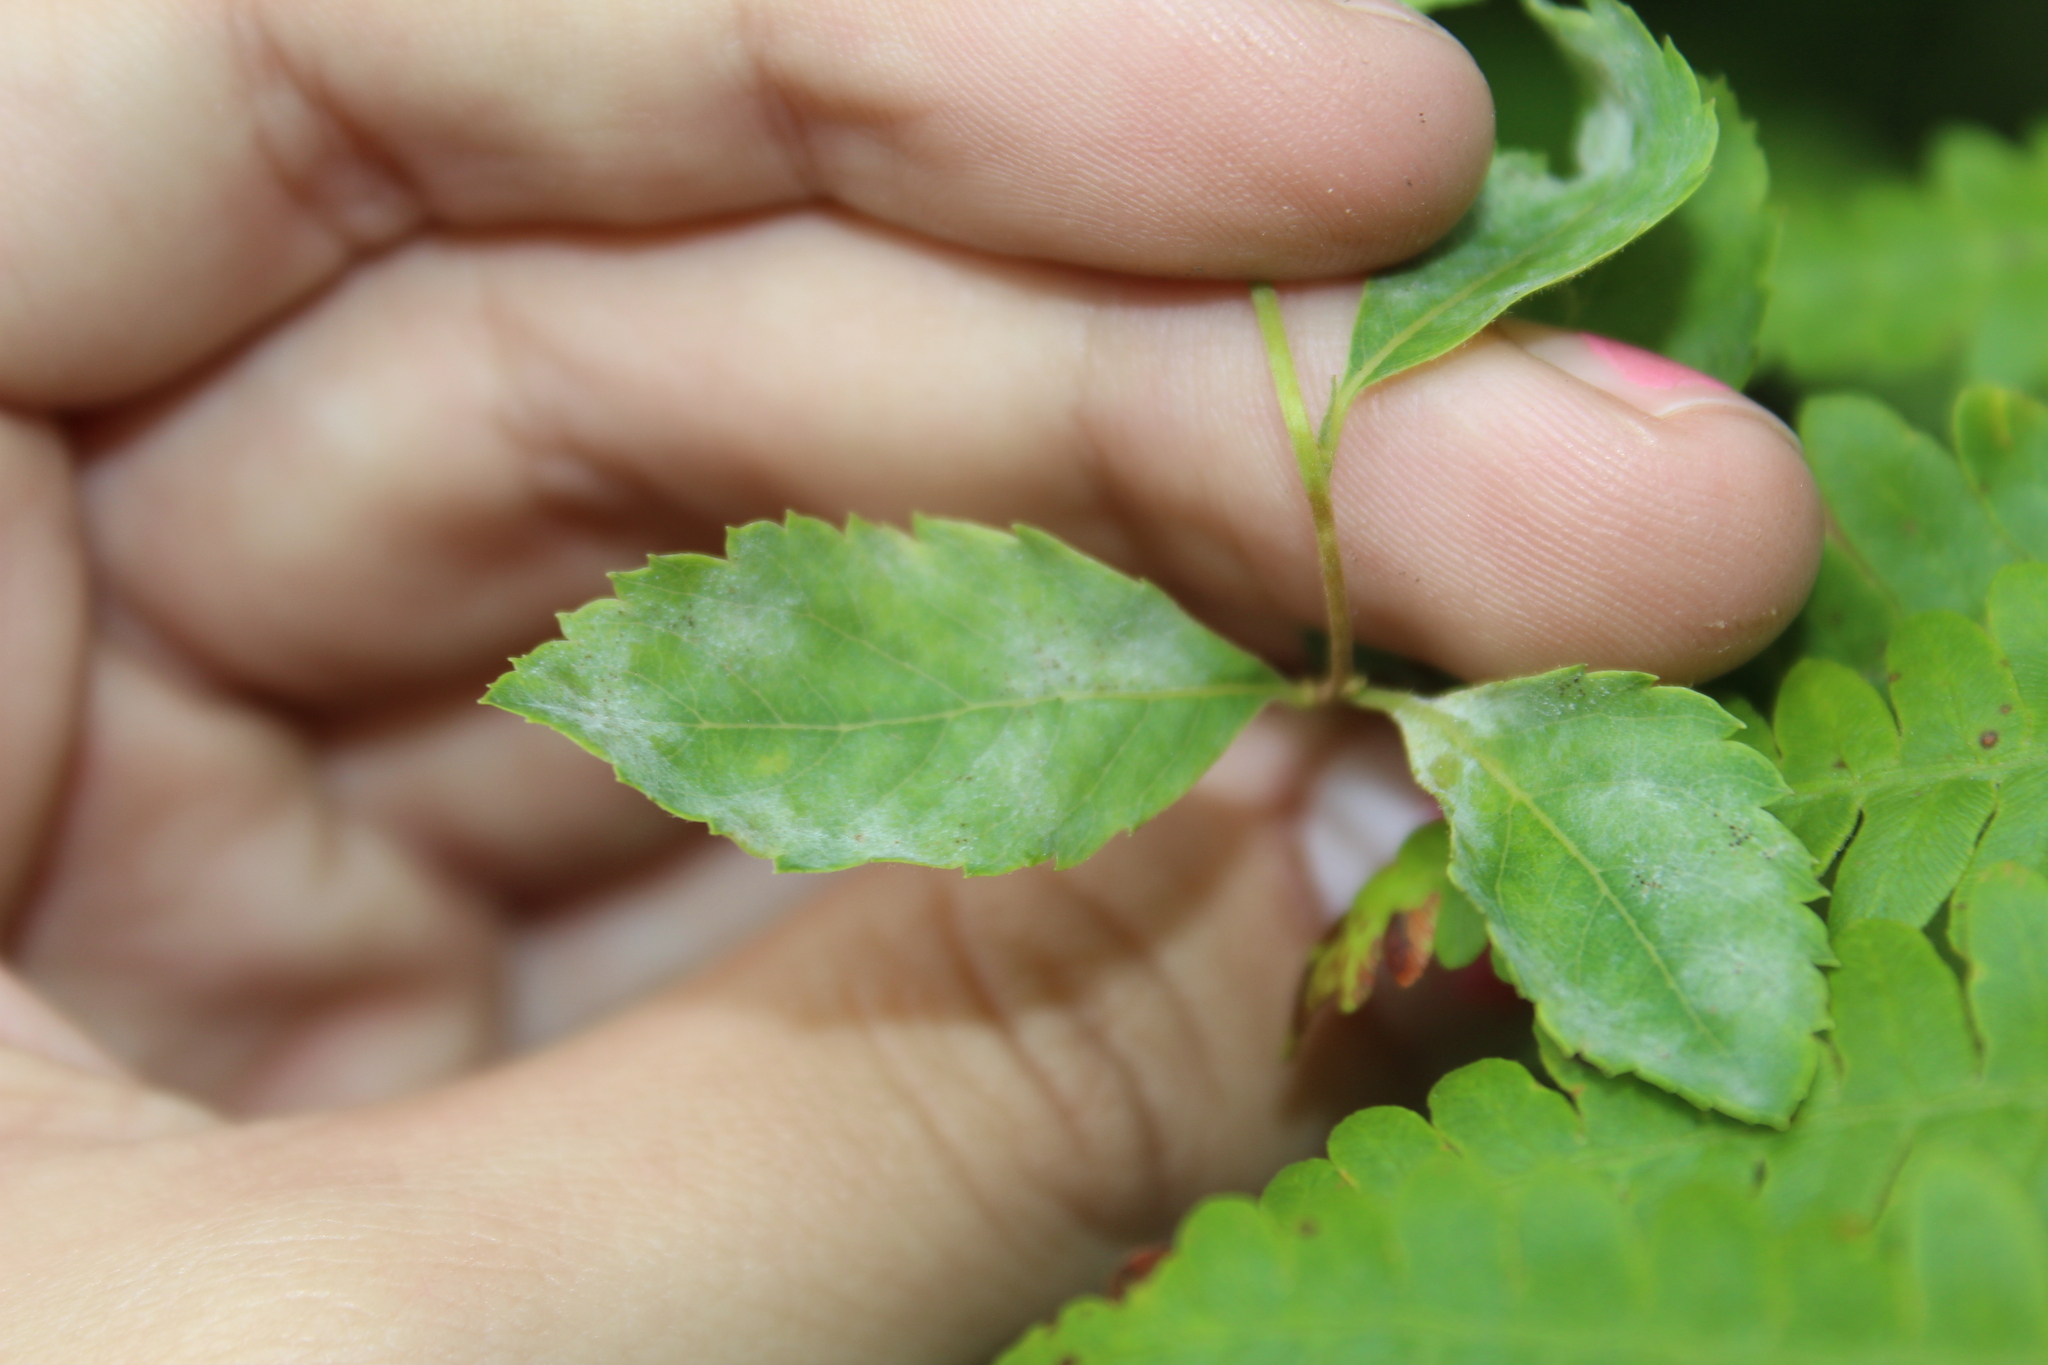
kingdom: Fungi
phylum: Ascomycota
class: Leotiomycetes
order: Helotiales
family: Erysiphaceae
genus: Podosphaera
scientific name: Podosphaera minor
